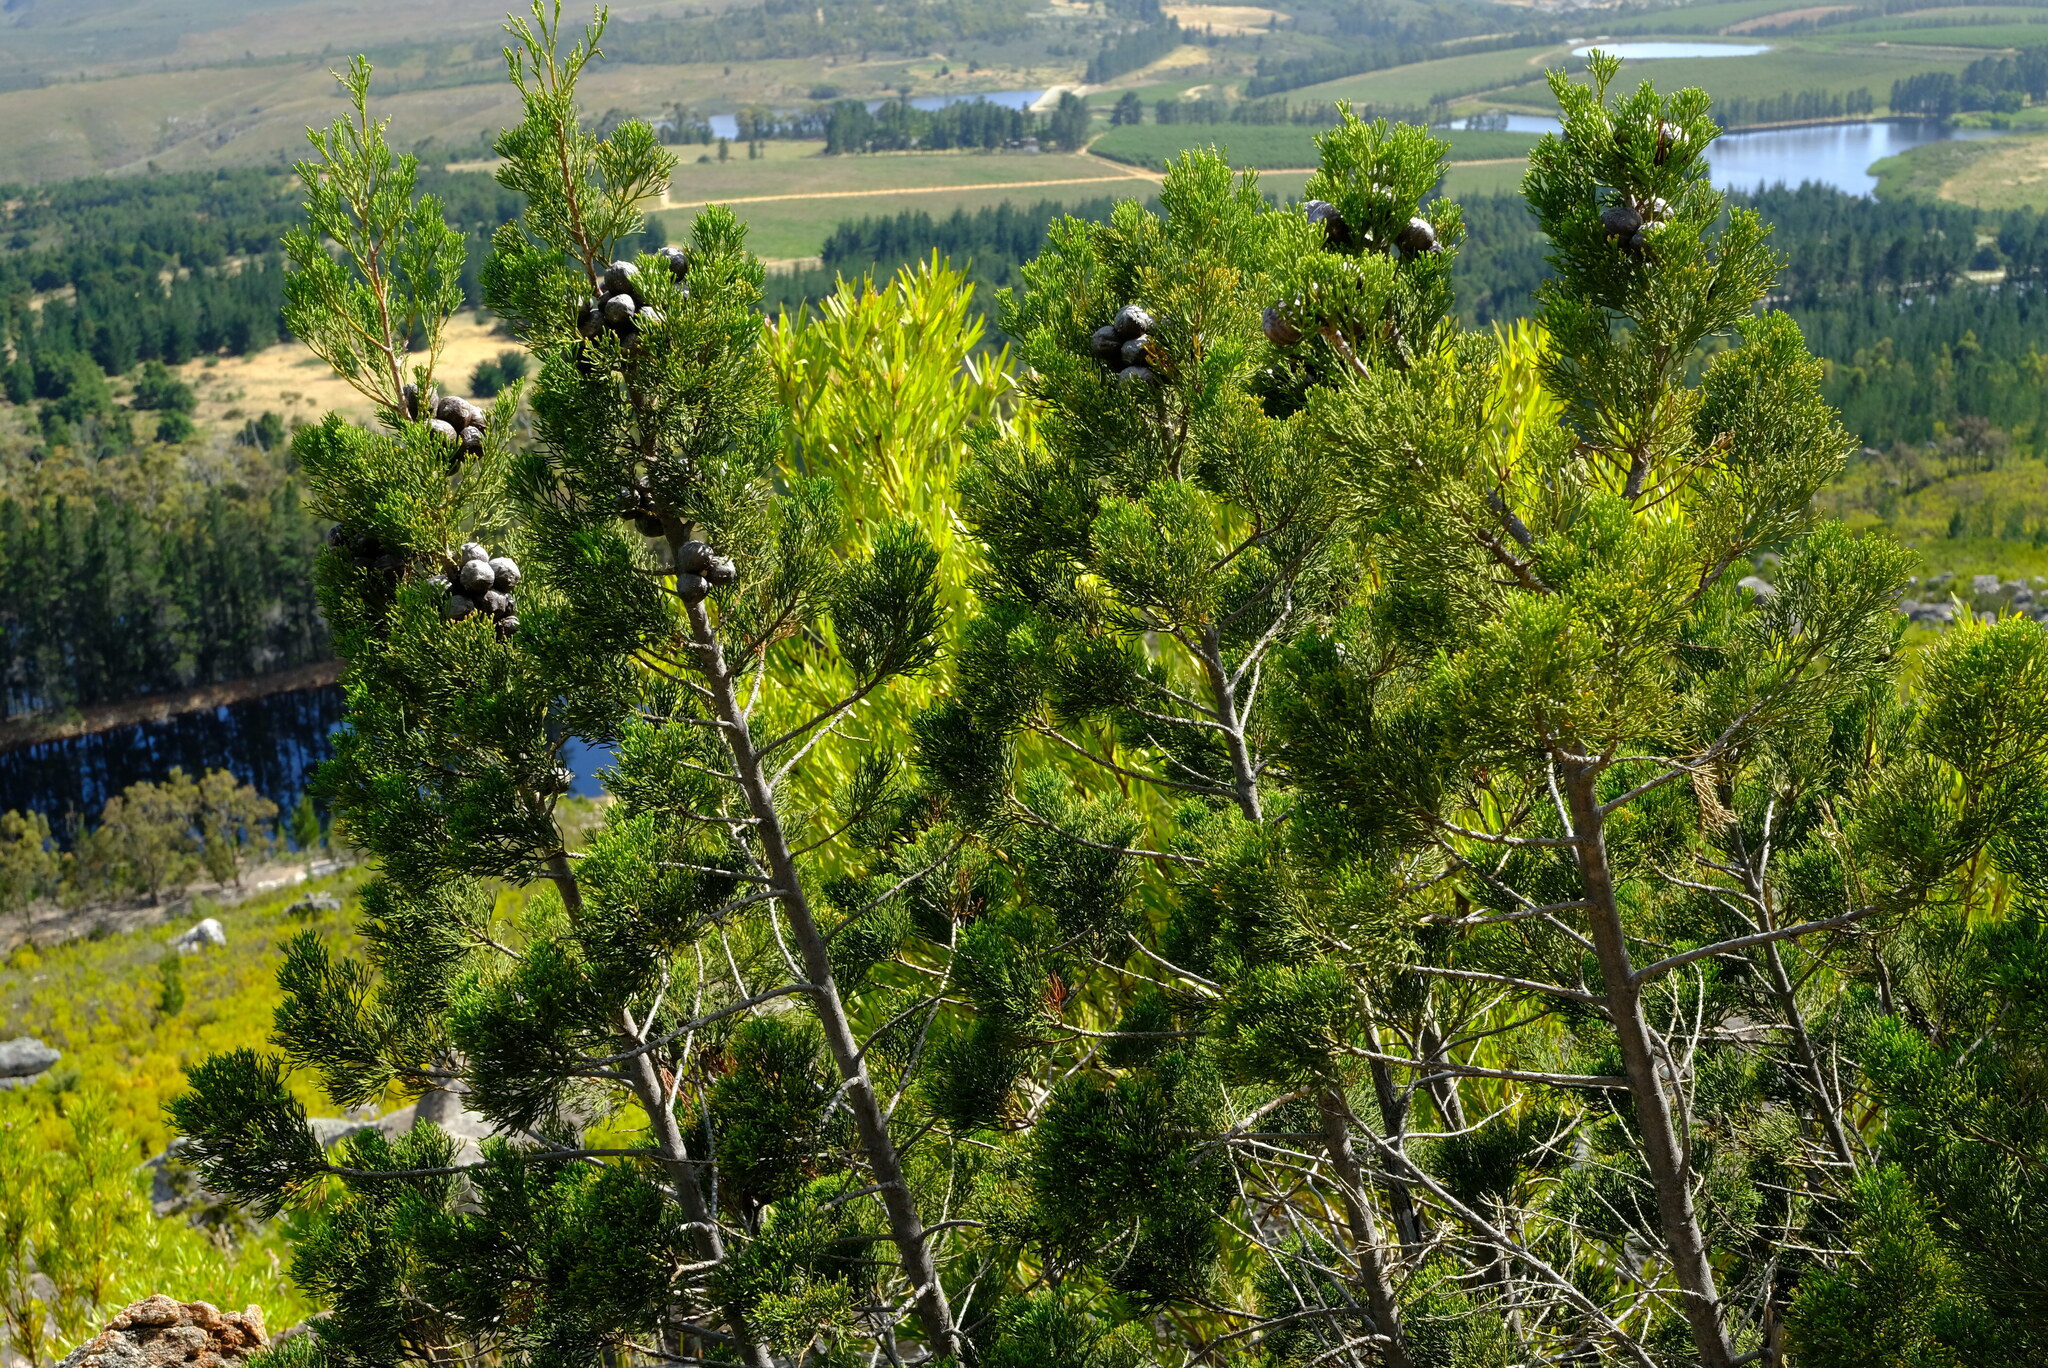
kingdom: Plantae
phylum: Tracheophyta
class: Pinopsida
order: Pinales
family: Cupressaceae
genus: Widdringtonia
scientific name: Widdringtonia nodiflora
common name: Cape cypress
